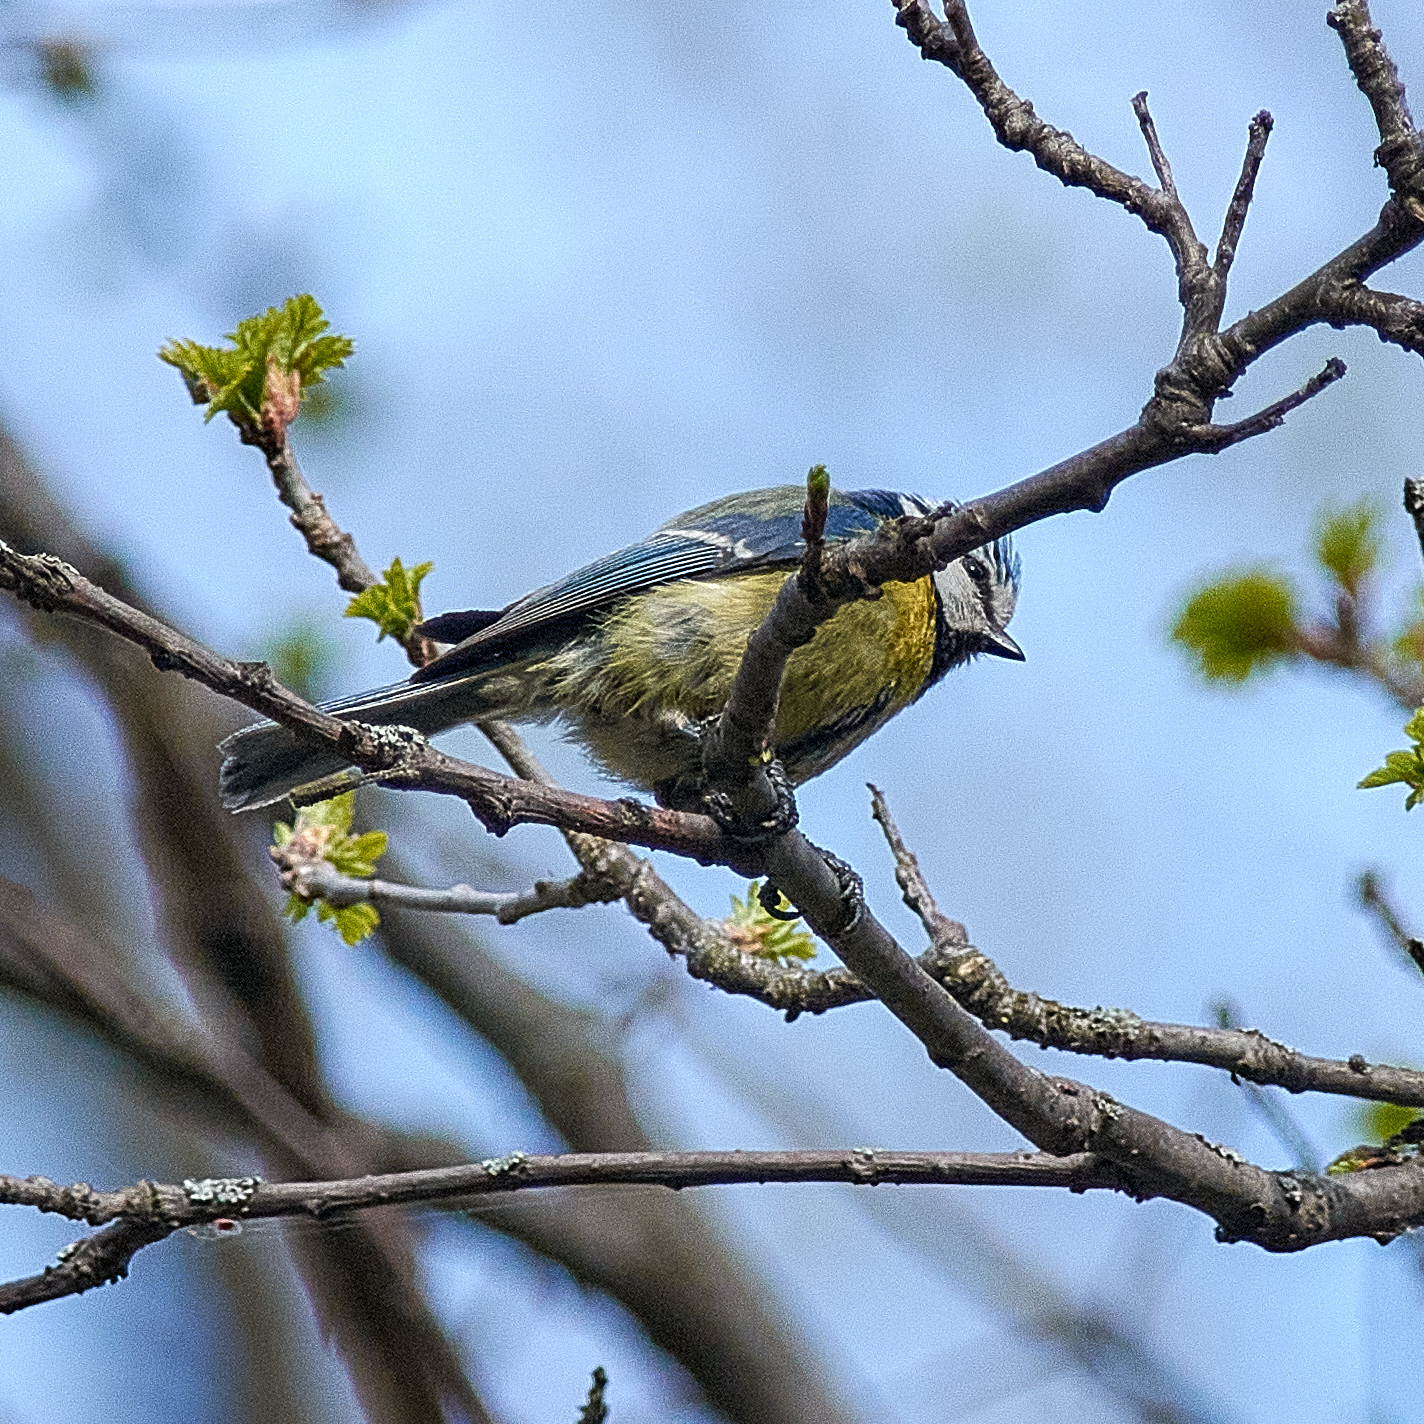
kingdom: Animalia
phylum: Chordata
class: Aves
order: Passeriformes
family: Paridae
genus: Cyanistes
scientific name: Cyanistes caeruleus
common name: Eurasian blue tit
